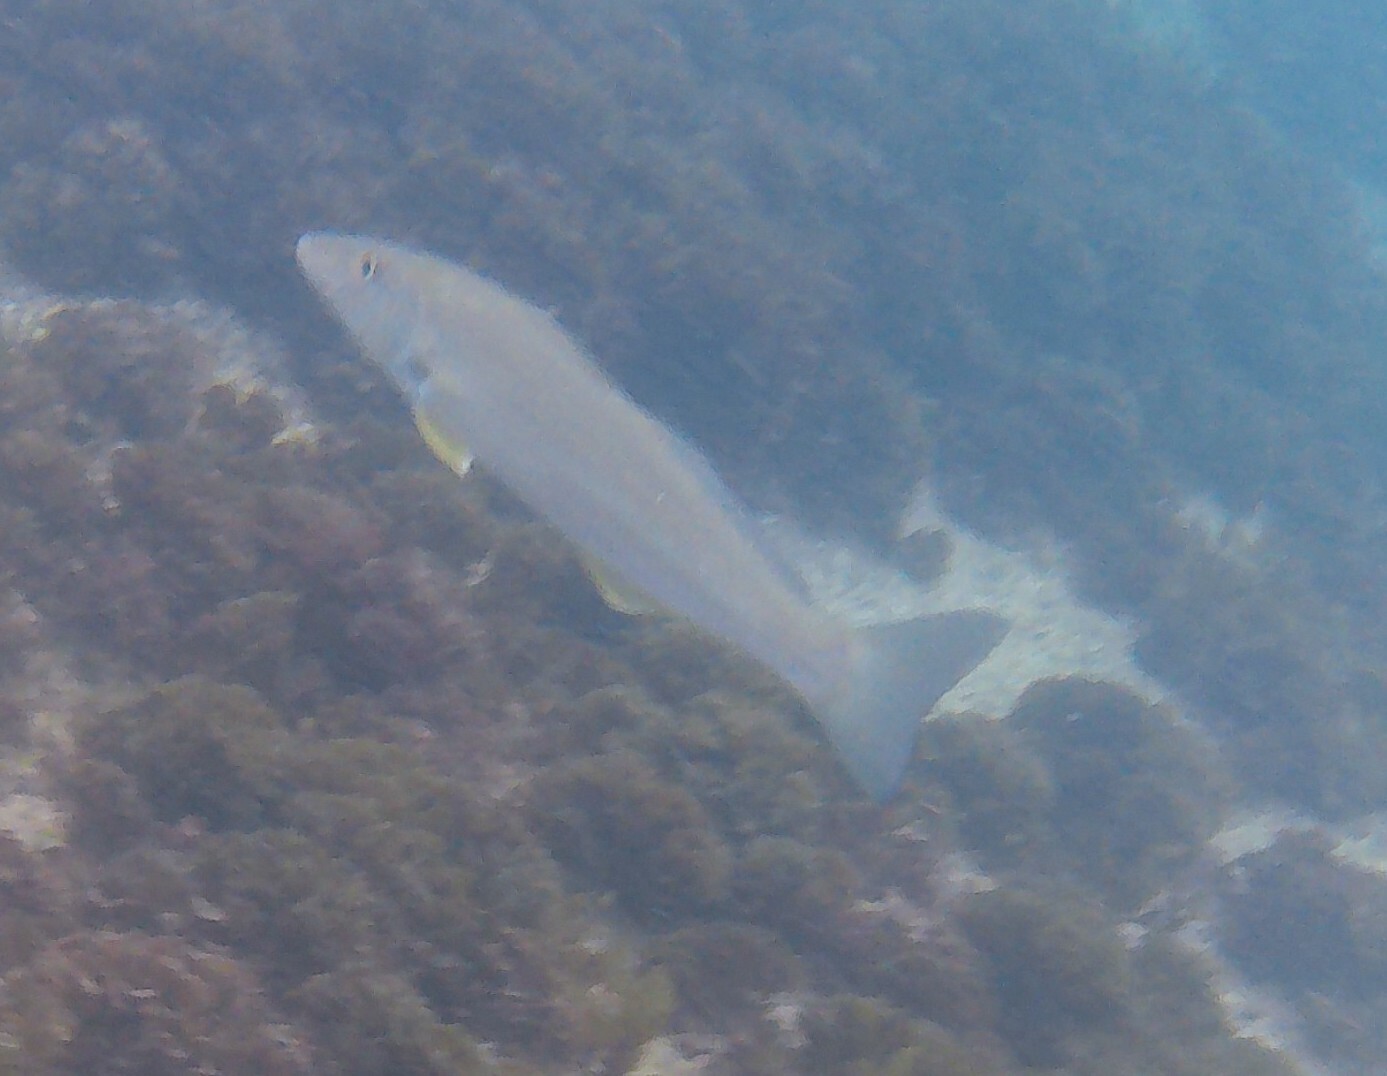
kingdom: Animalia
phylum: Chordata
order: Perciformes
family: Sillaginidae
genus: Sillago
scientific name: Sillago ciliata
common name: Sand sillago
